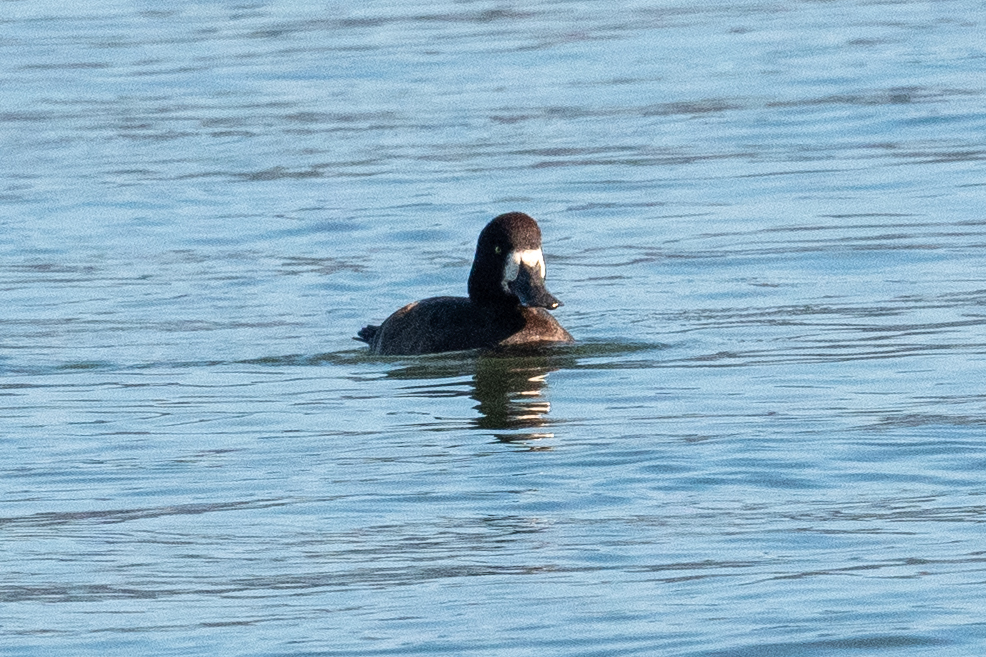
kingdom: Animalia
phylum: Chordata
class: Aves
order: Anseriformes
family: Anatidae
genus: Aythya
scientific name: Aythya marila
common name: Greater scaup
